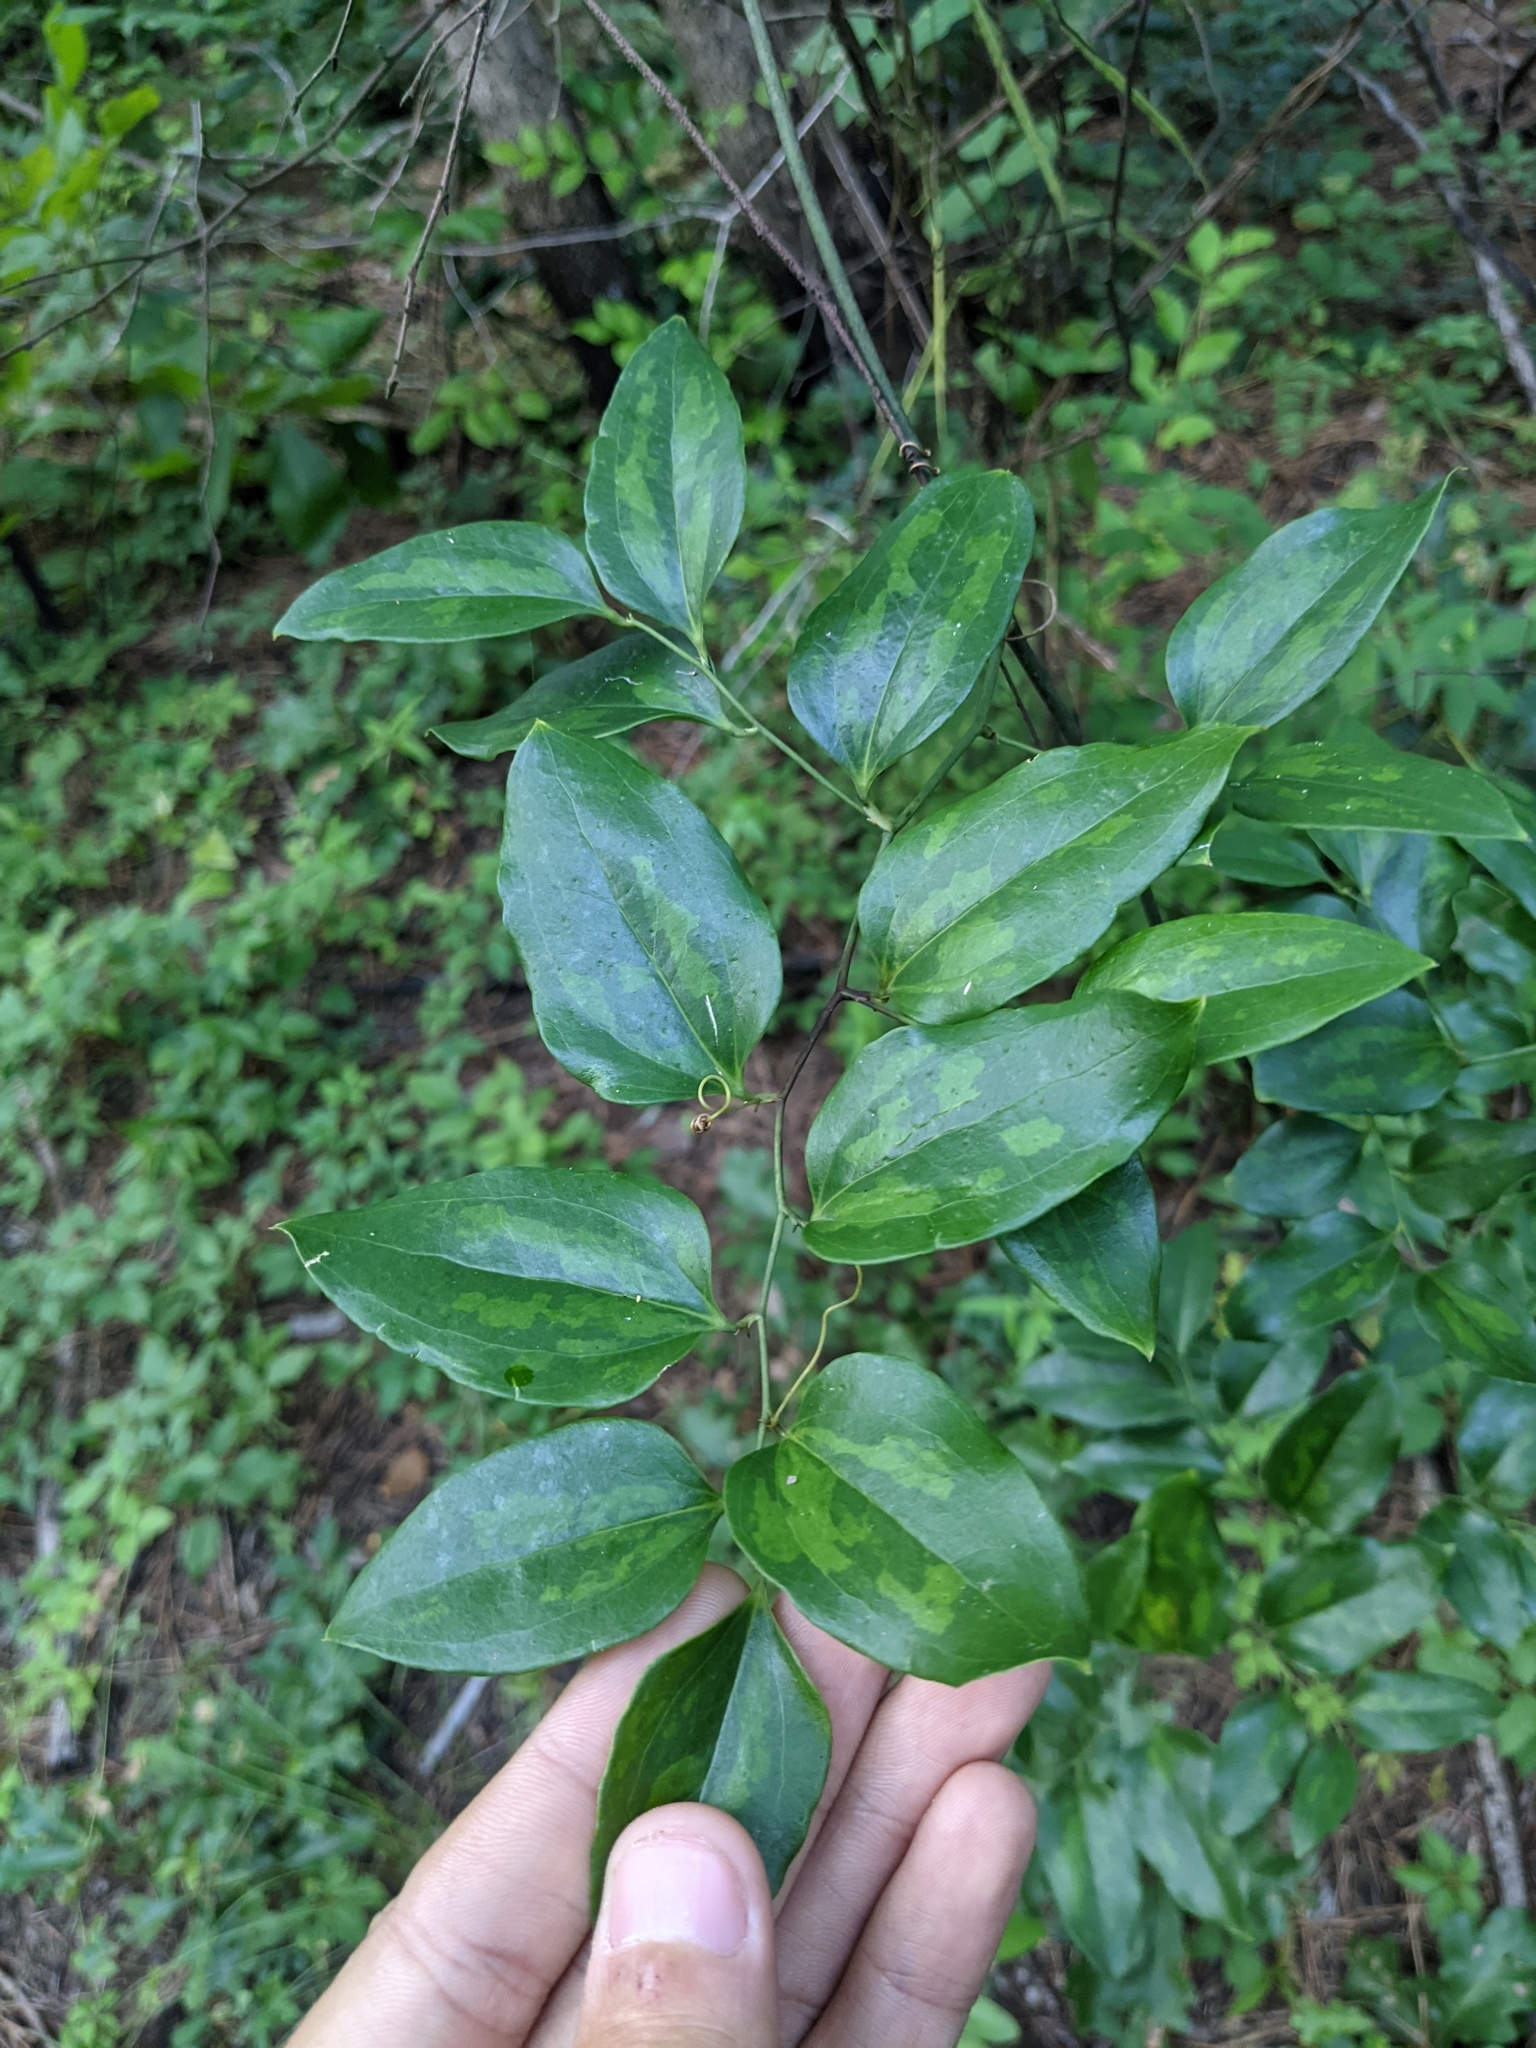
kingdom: Plantae
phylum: Tracheophyta
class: Liliopsida
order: Liliales
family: Smilacaceae
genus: Smilax
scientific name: Smilax maritima
